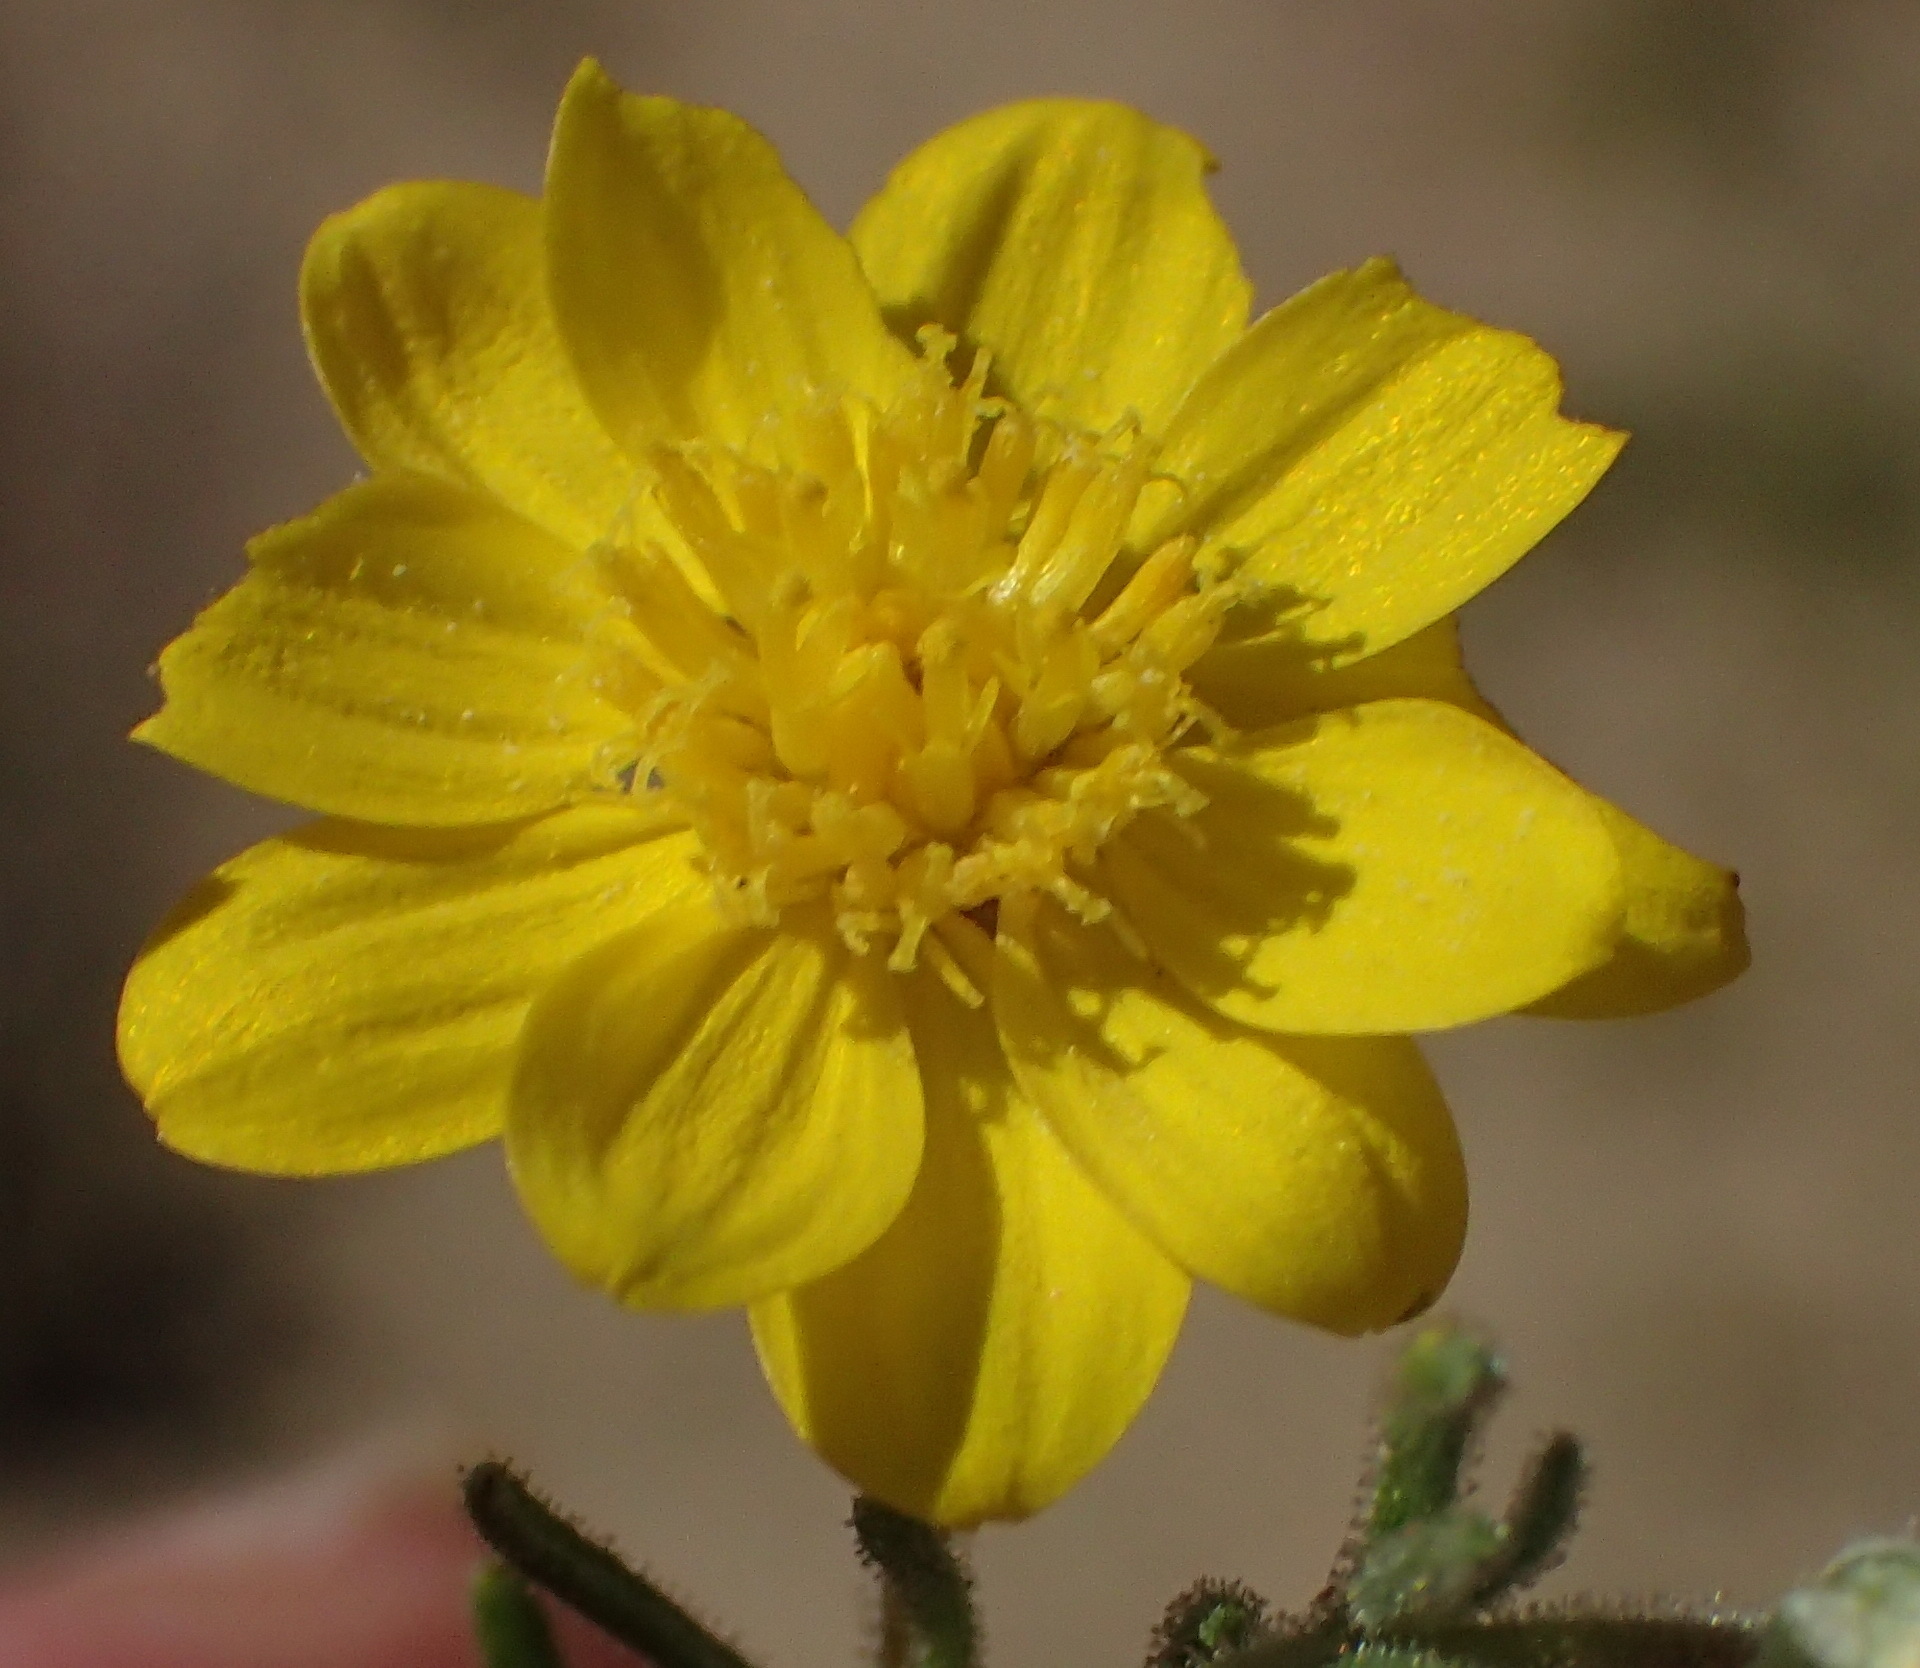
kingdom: Plantae
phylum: Tracheophyta
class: Magnoliopsida
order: Asterales
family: Asteraceae
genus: Rhynchopsidium
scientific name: Rhynchopsidium pumilum
